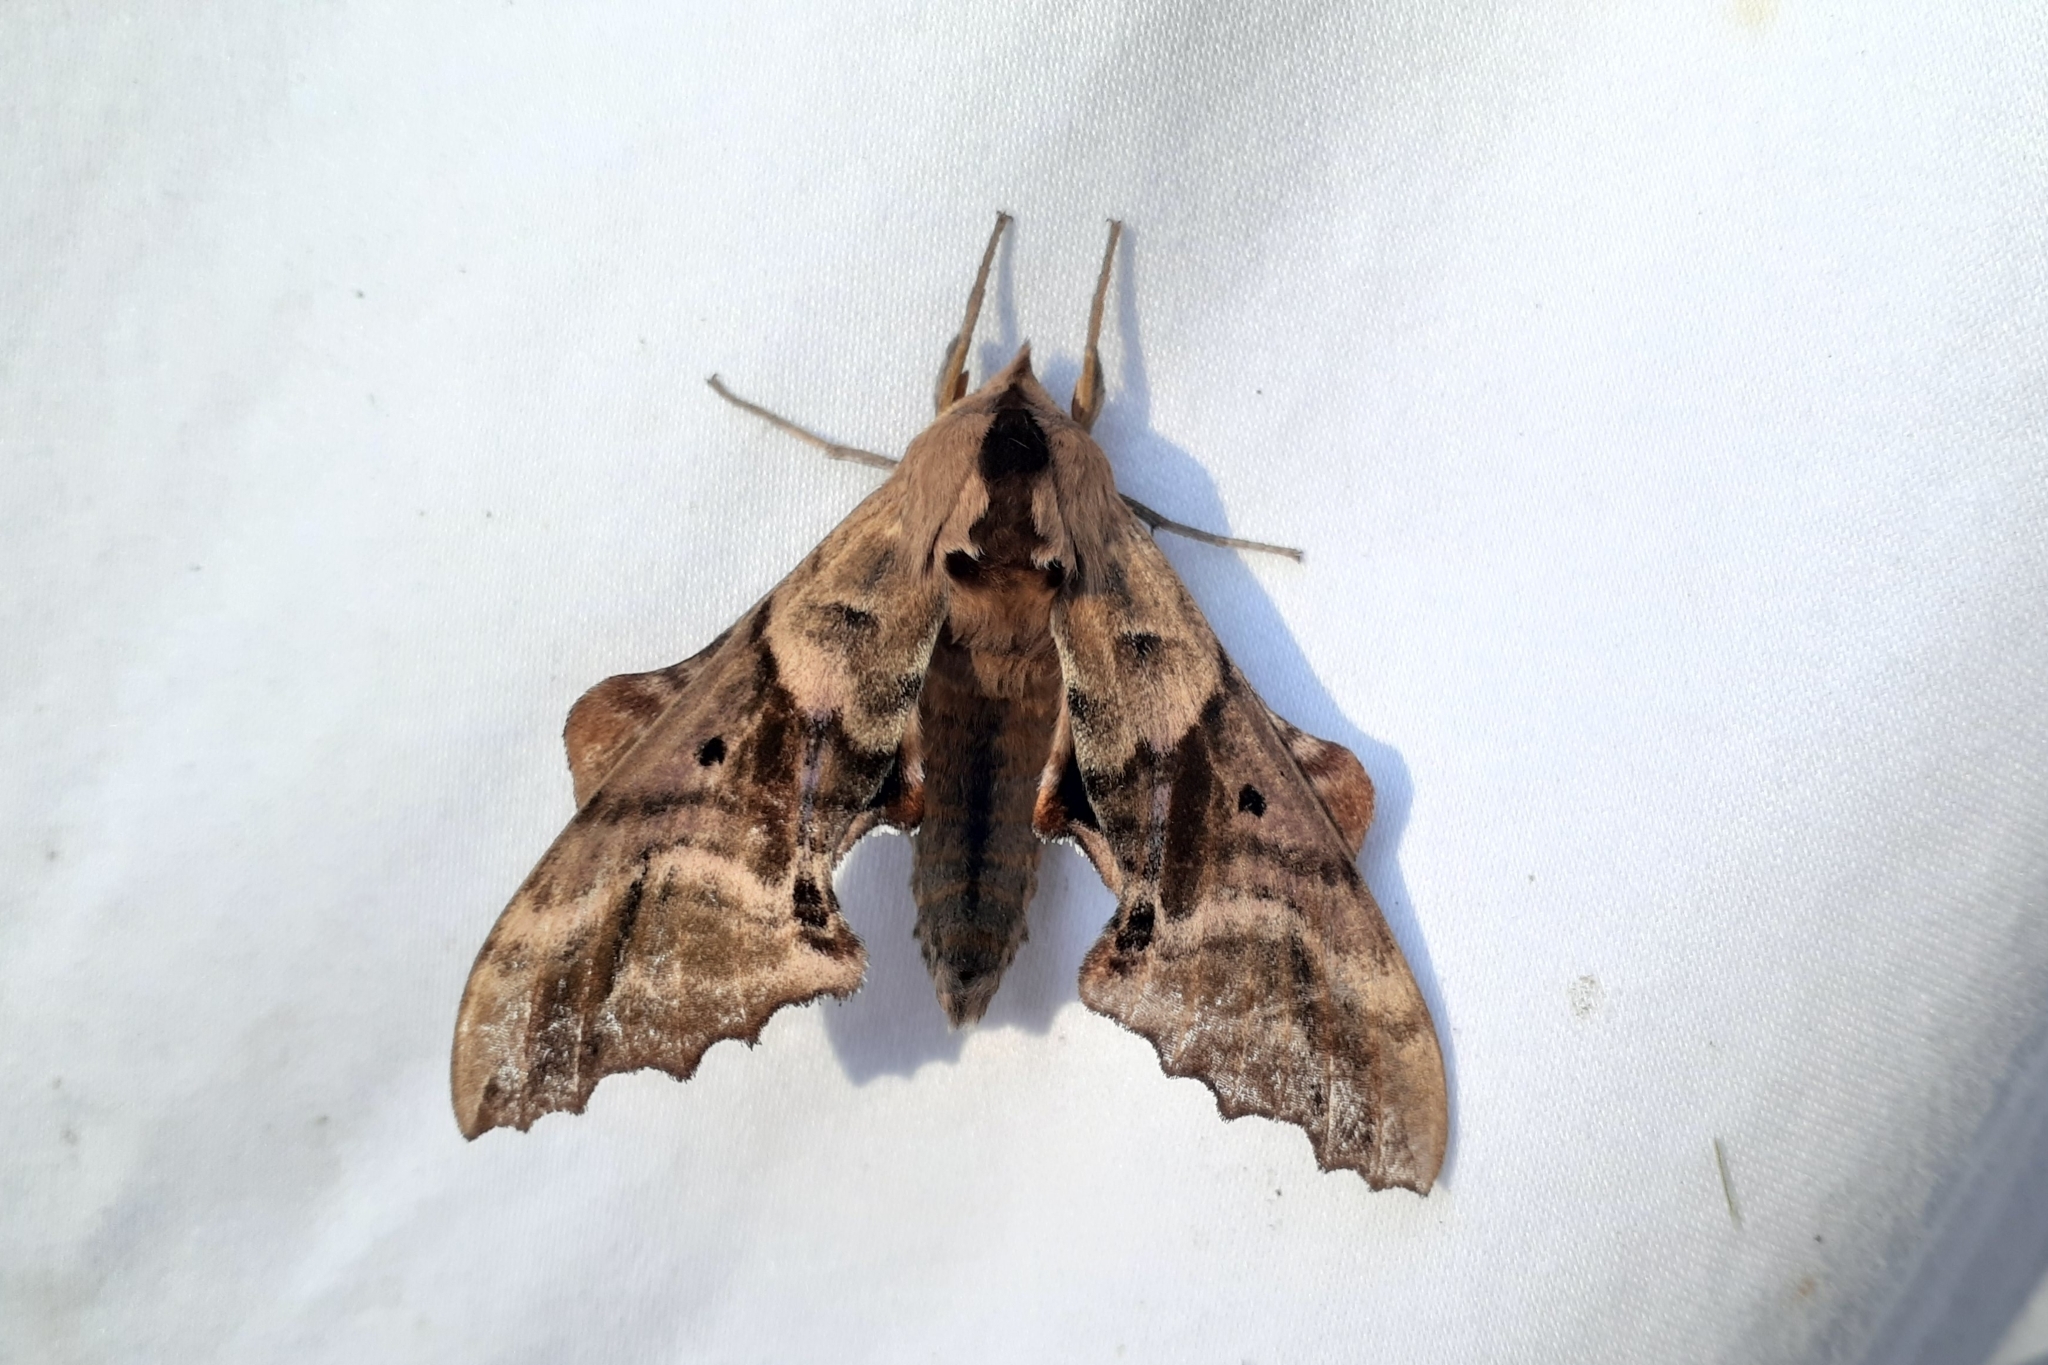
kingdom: Animalia
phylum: Arthropoda
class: Insecta
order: Lepidoptera
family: Sphingidae
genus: Paonias
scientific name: Paonias excaecata
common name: Blind-eyed sphinx
